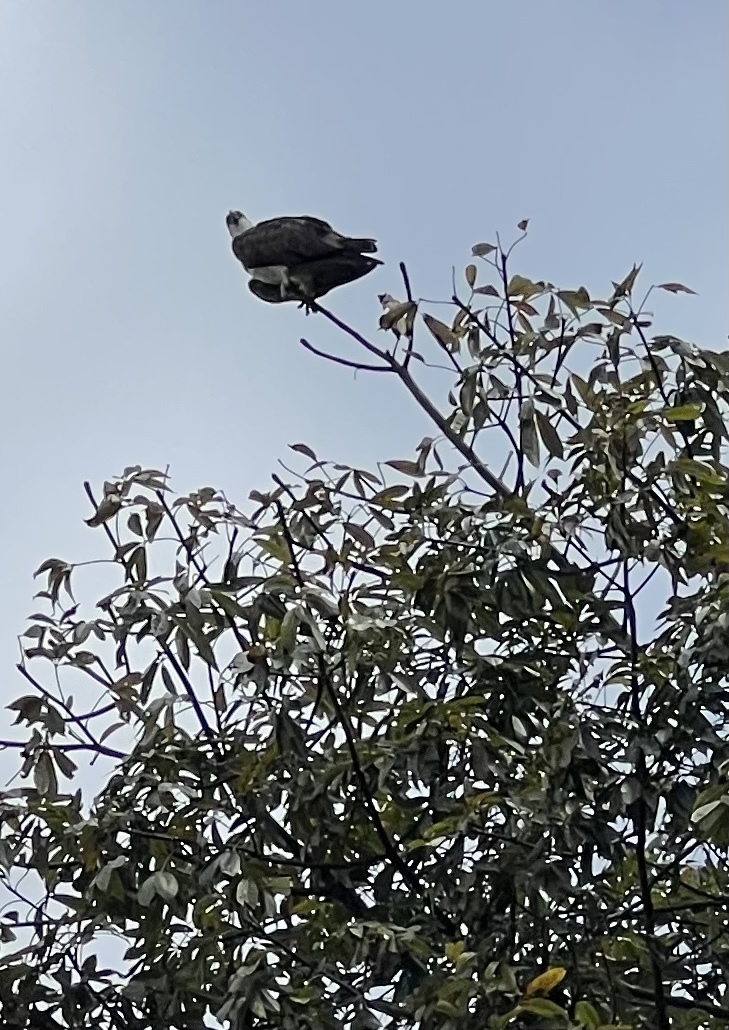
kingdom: Animalia
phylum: Chordata
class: Aves
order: Accipitriformes
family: Pandionidae
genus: Pandion
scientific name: Pandion haliaetus
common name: Osprey
